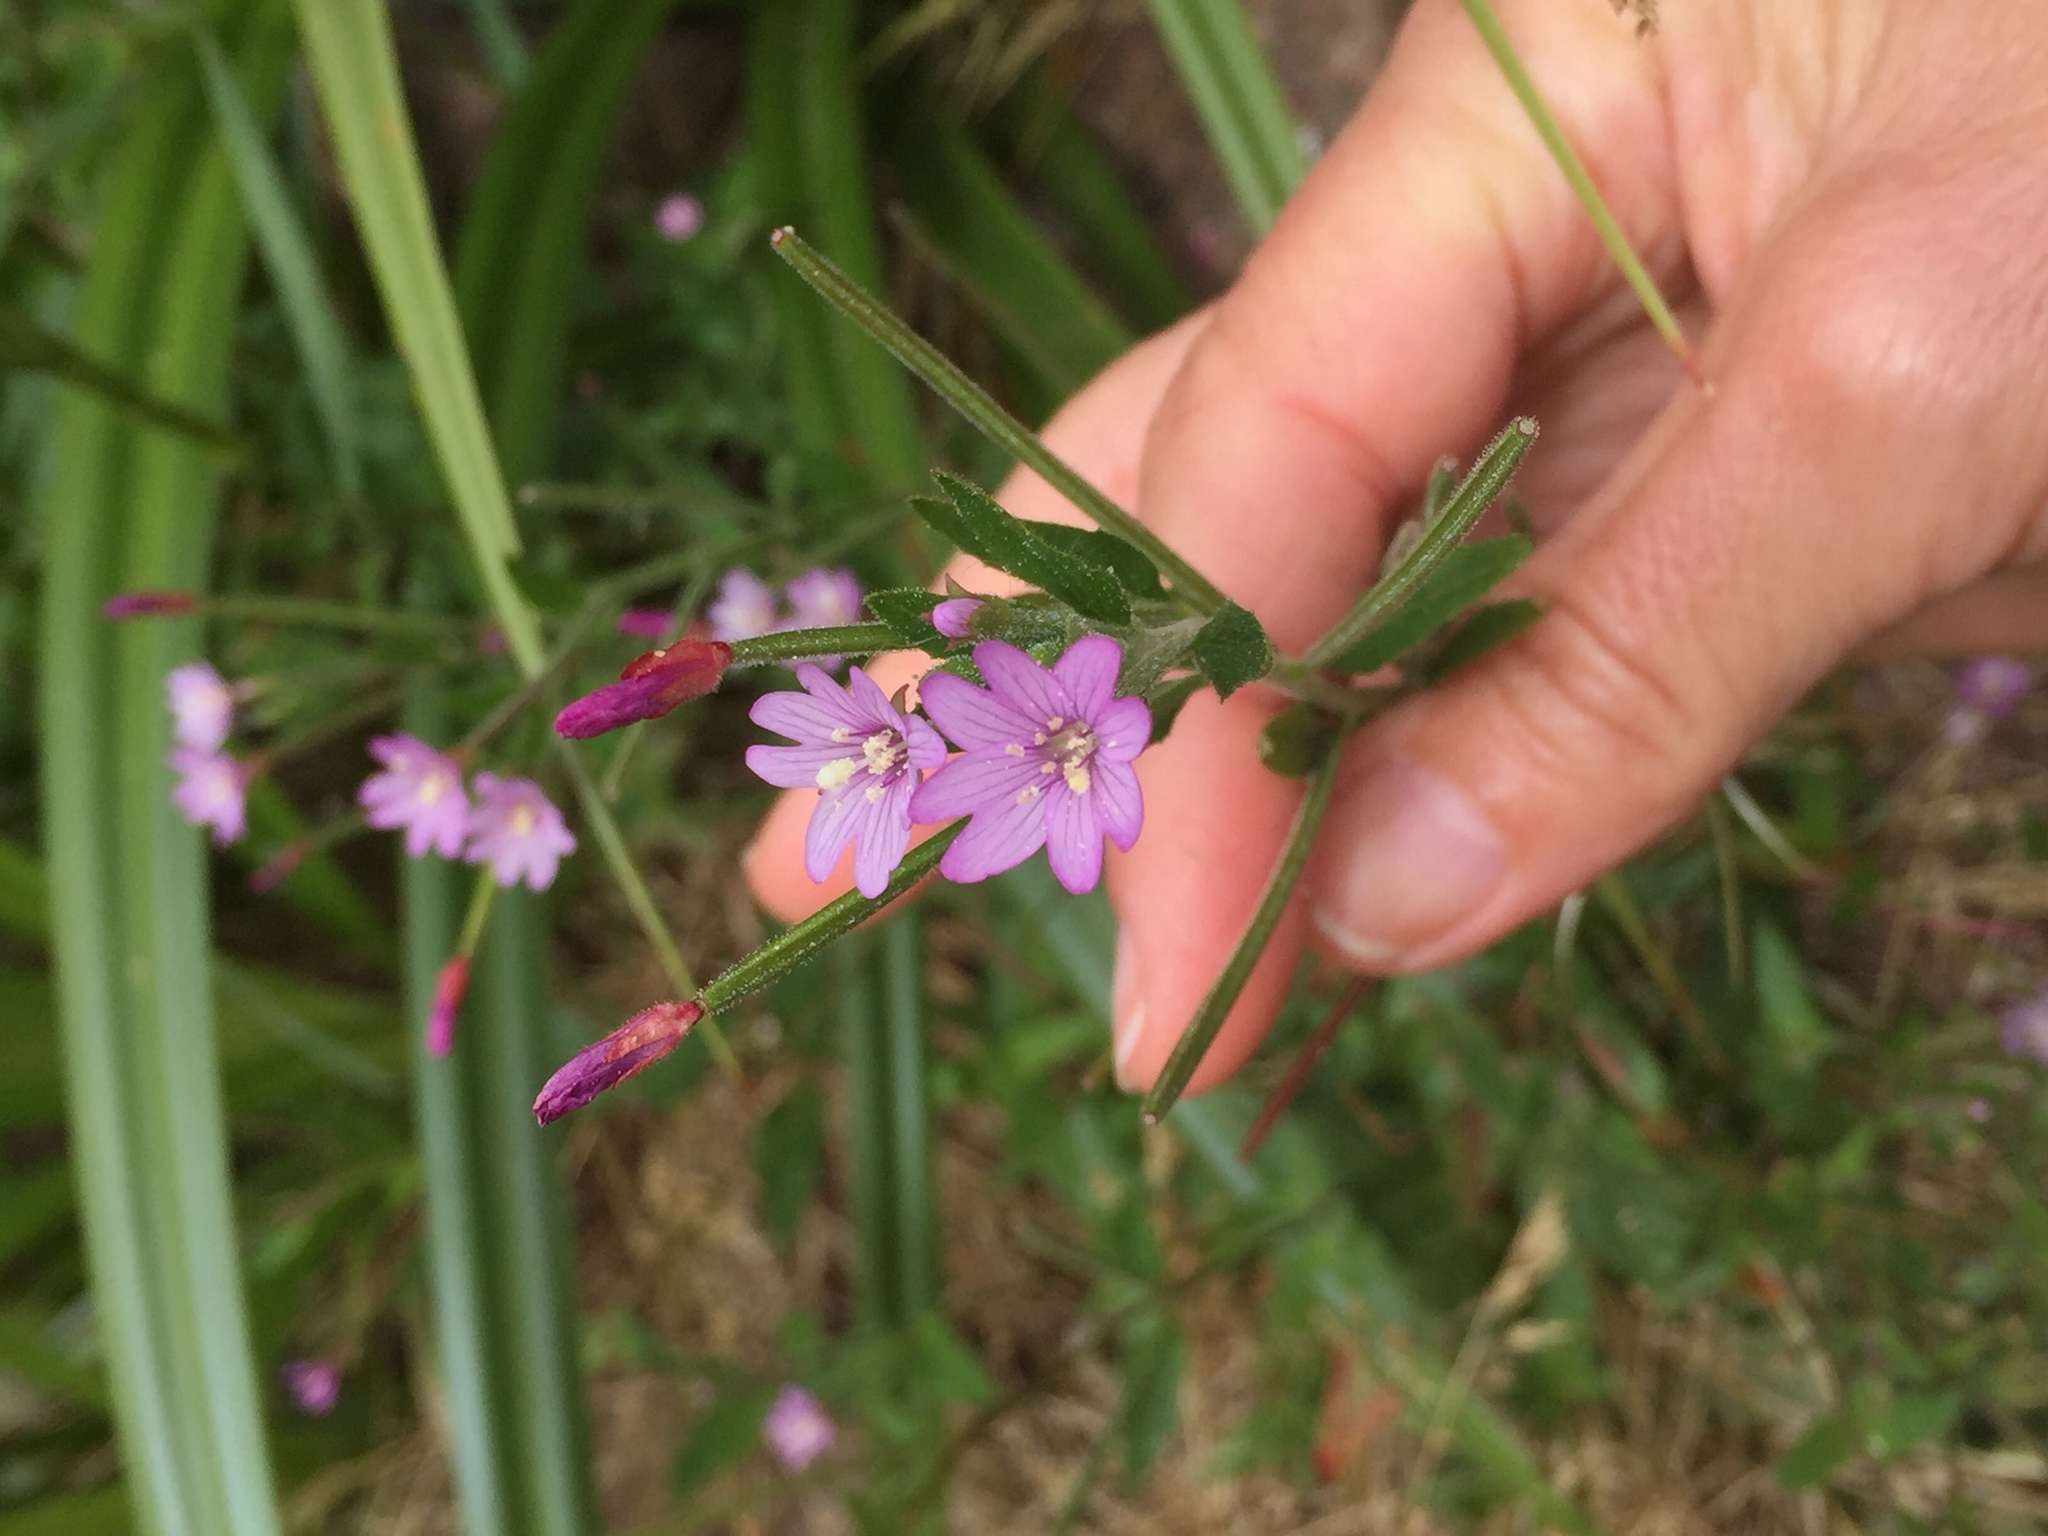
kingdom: Plantae
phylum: Tracheophyta
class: Magnoliopsida
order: Myrtales
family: Onagraceae
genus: Epilobium
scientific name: Epilobium ciliatum
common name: American willowherb
